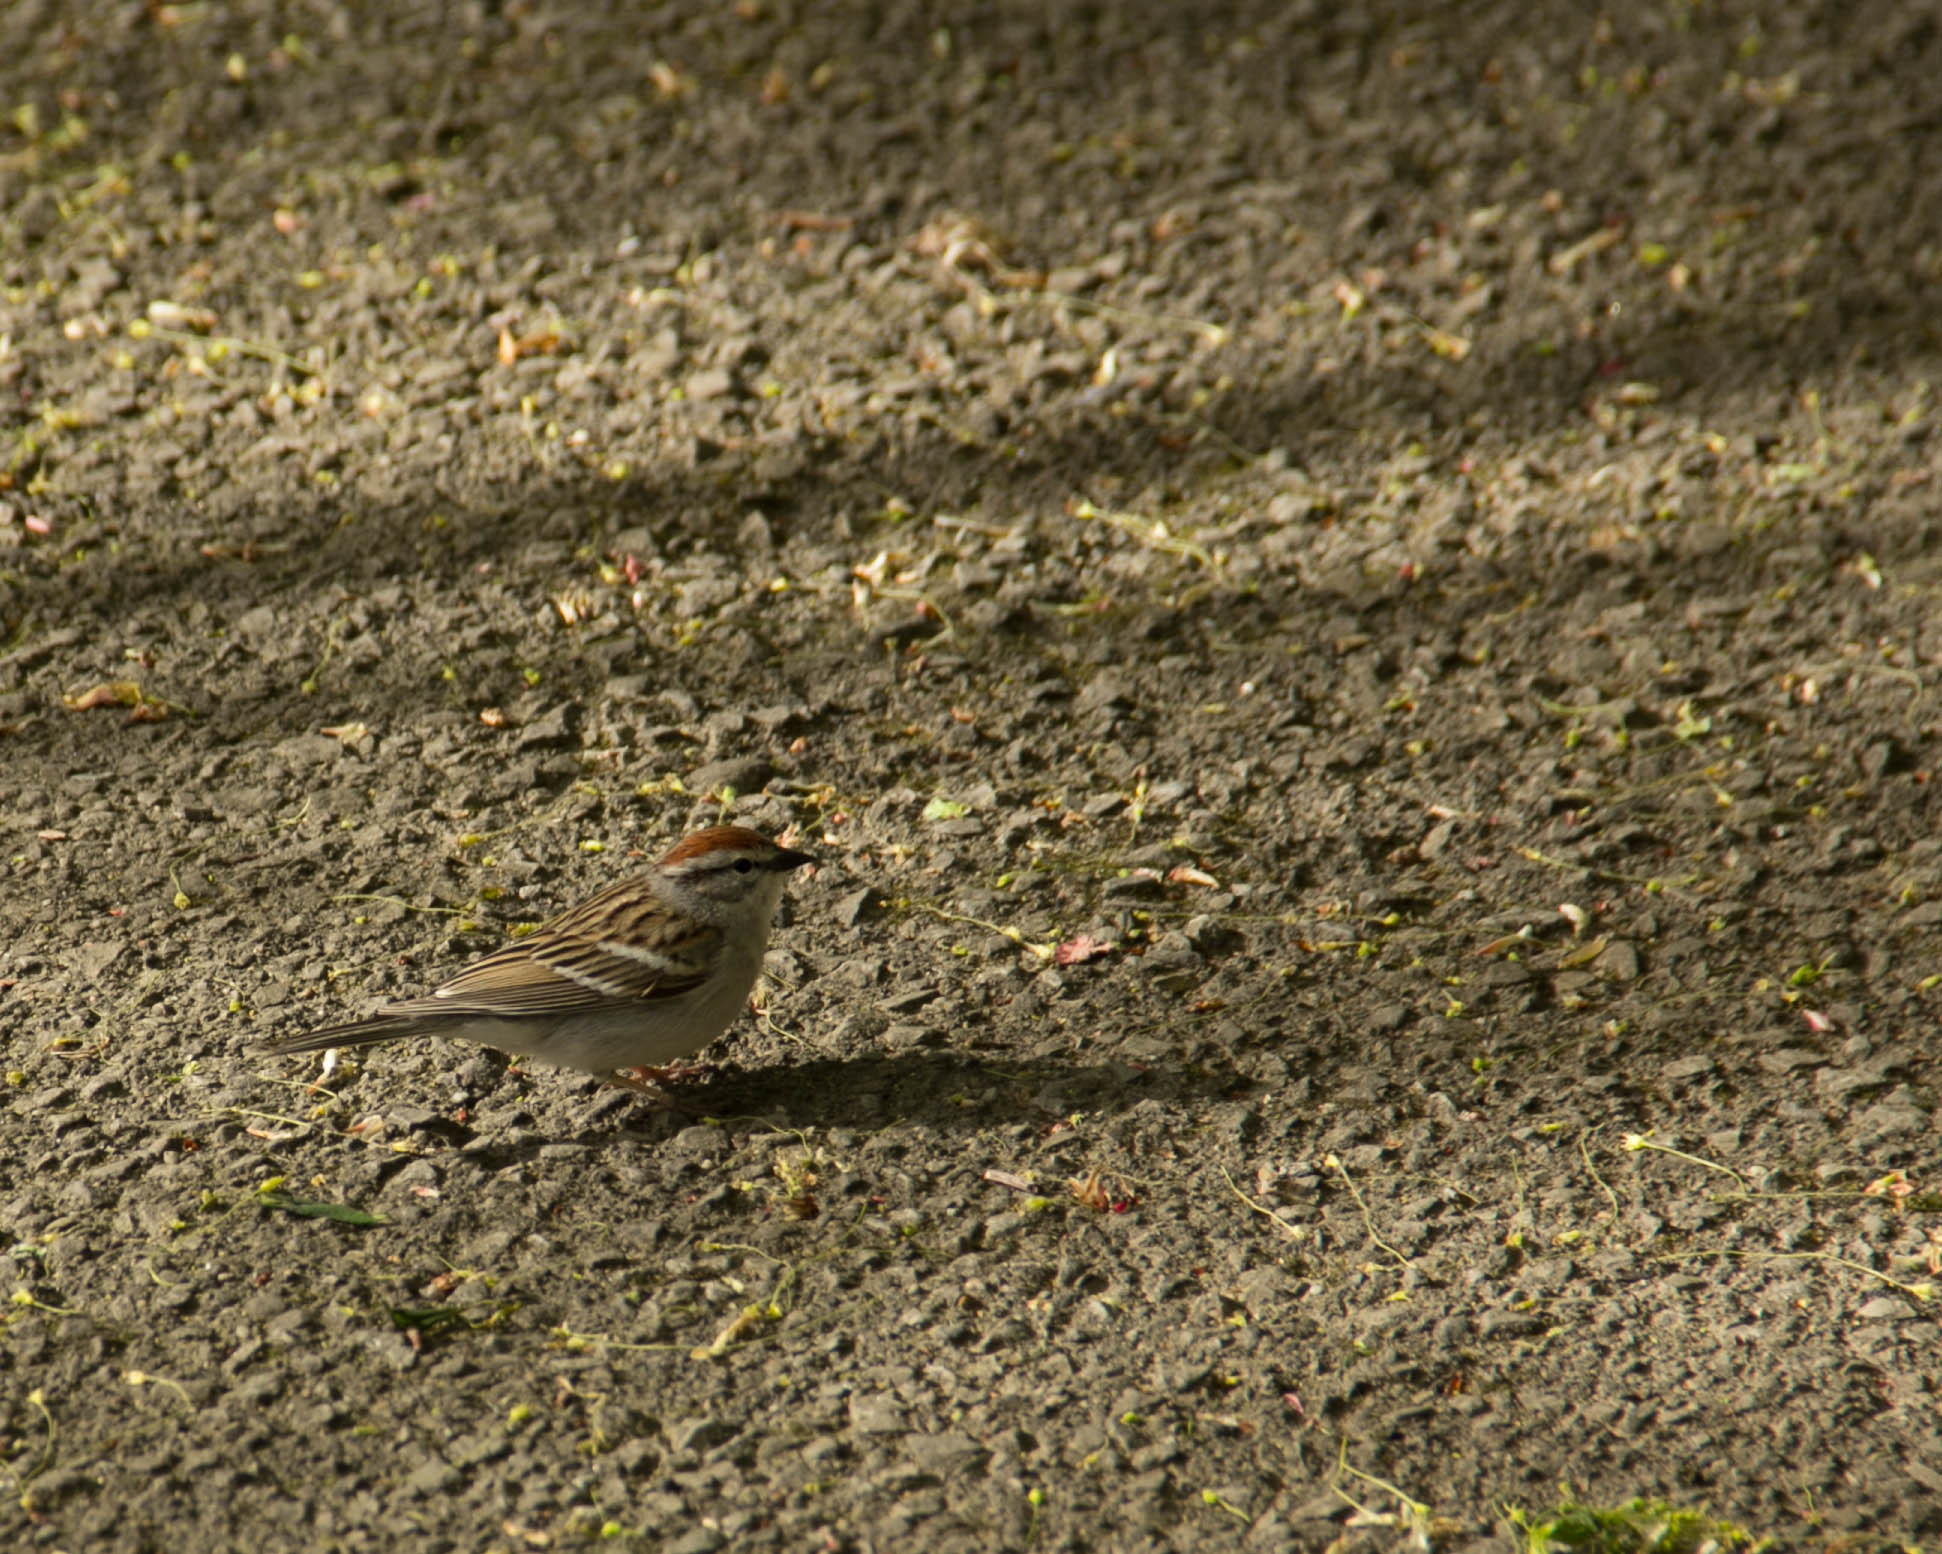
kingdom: Animalia
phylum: Chordata
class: Aves
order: Passeriformes
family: Passerellidae
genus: Spizella
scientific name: Spizella passerina
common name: Chipping sparrow
